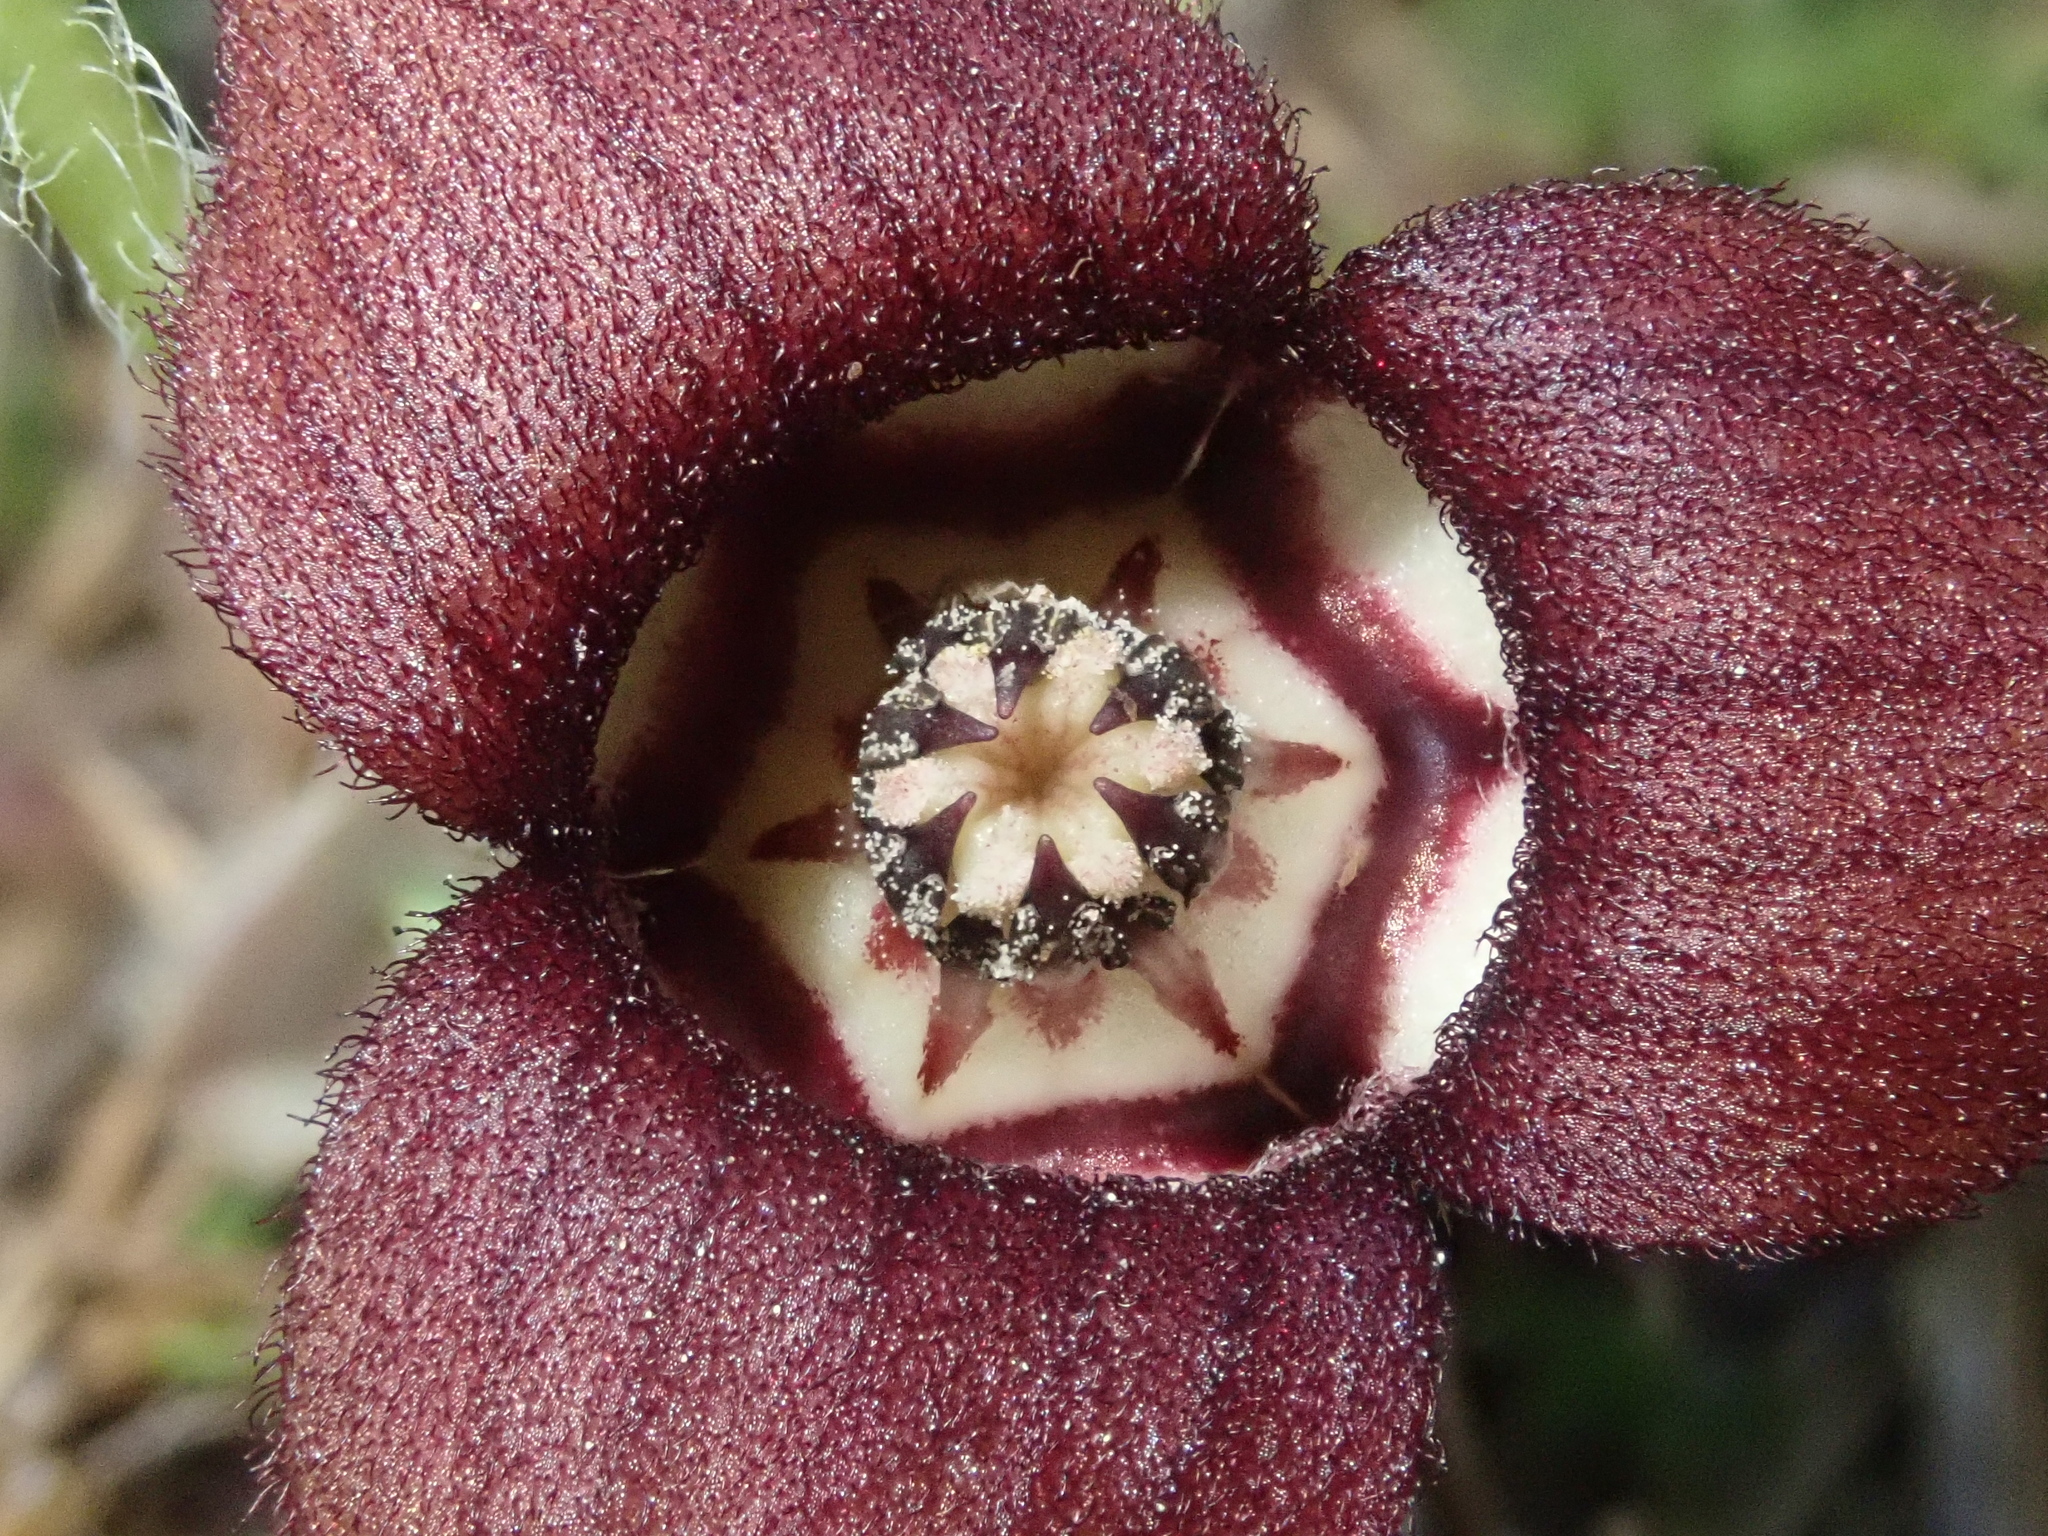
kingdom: Plantae
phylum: Tracheophyta
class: Magnoliopsida
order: Piperales
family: Aristolochiaceae
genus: Asarum
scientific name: Asarum caudatum
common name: Wild ginger
